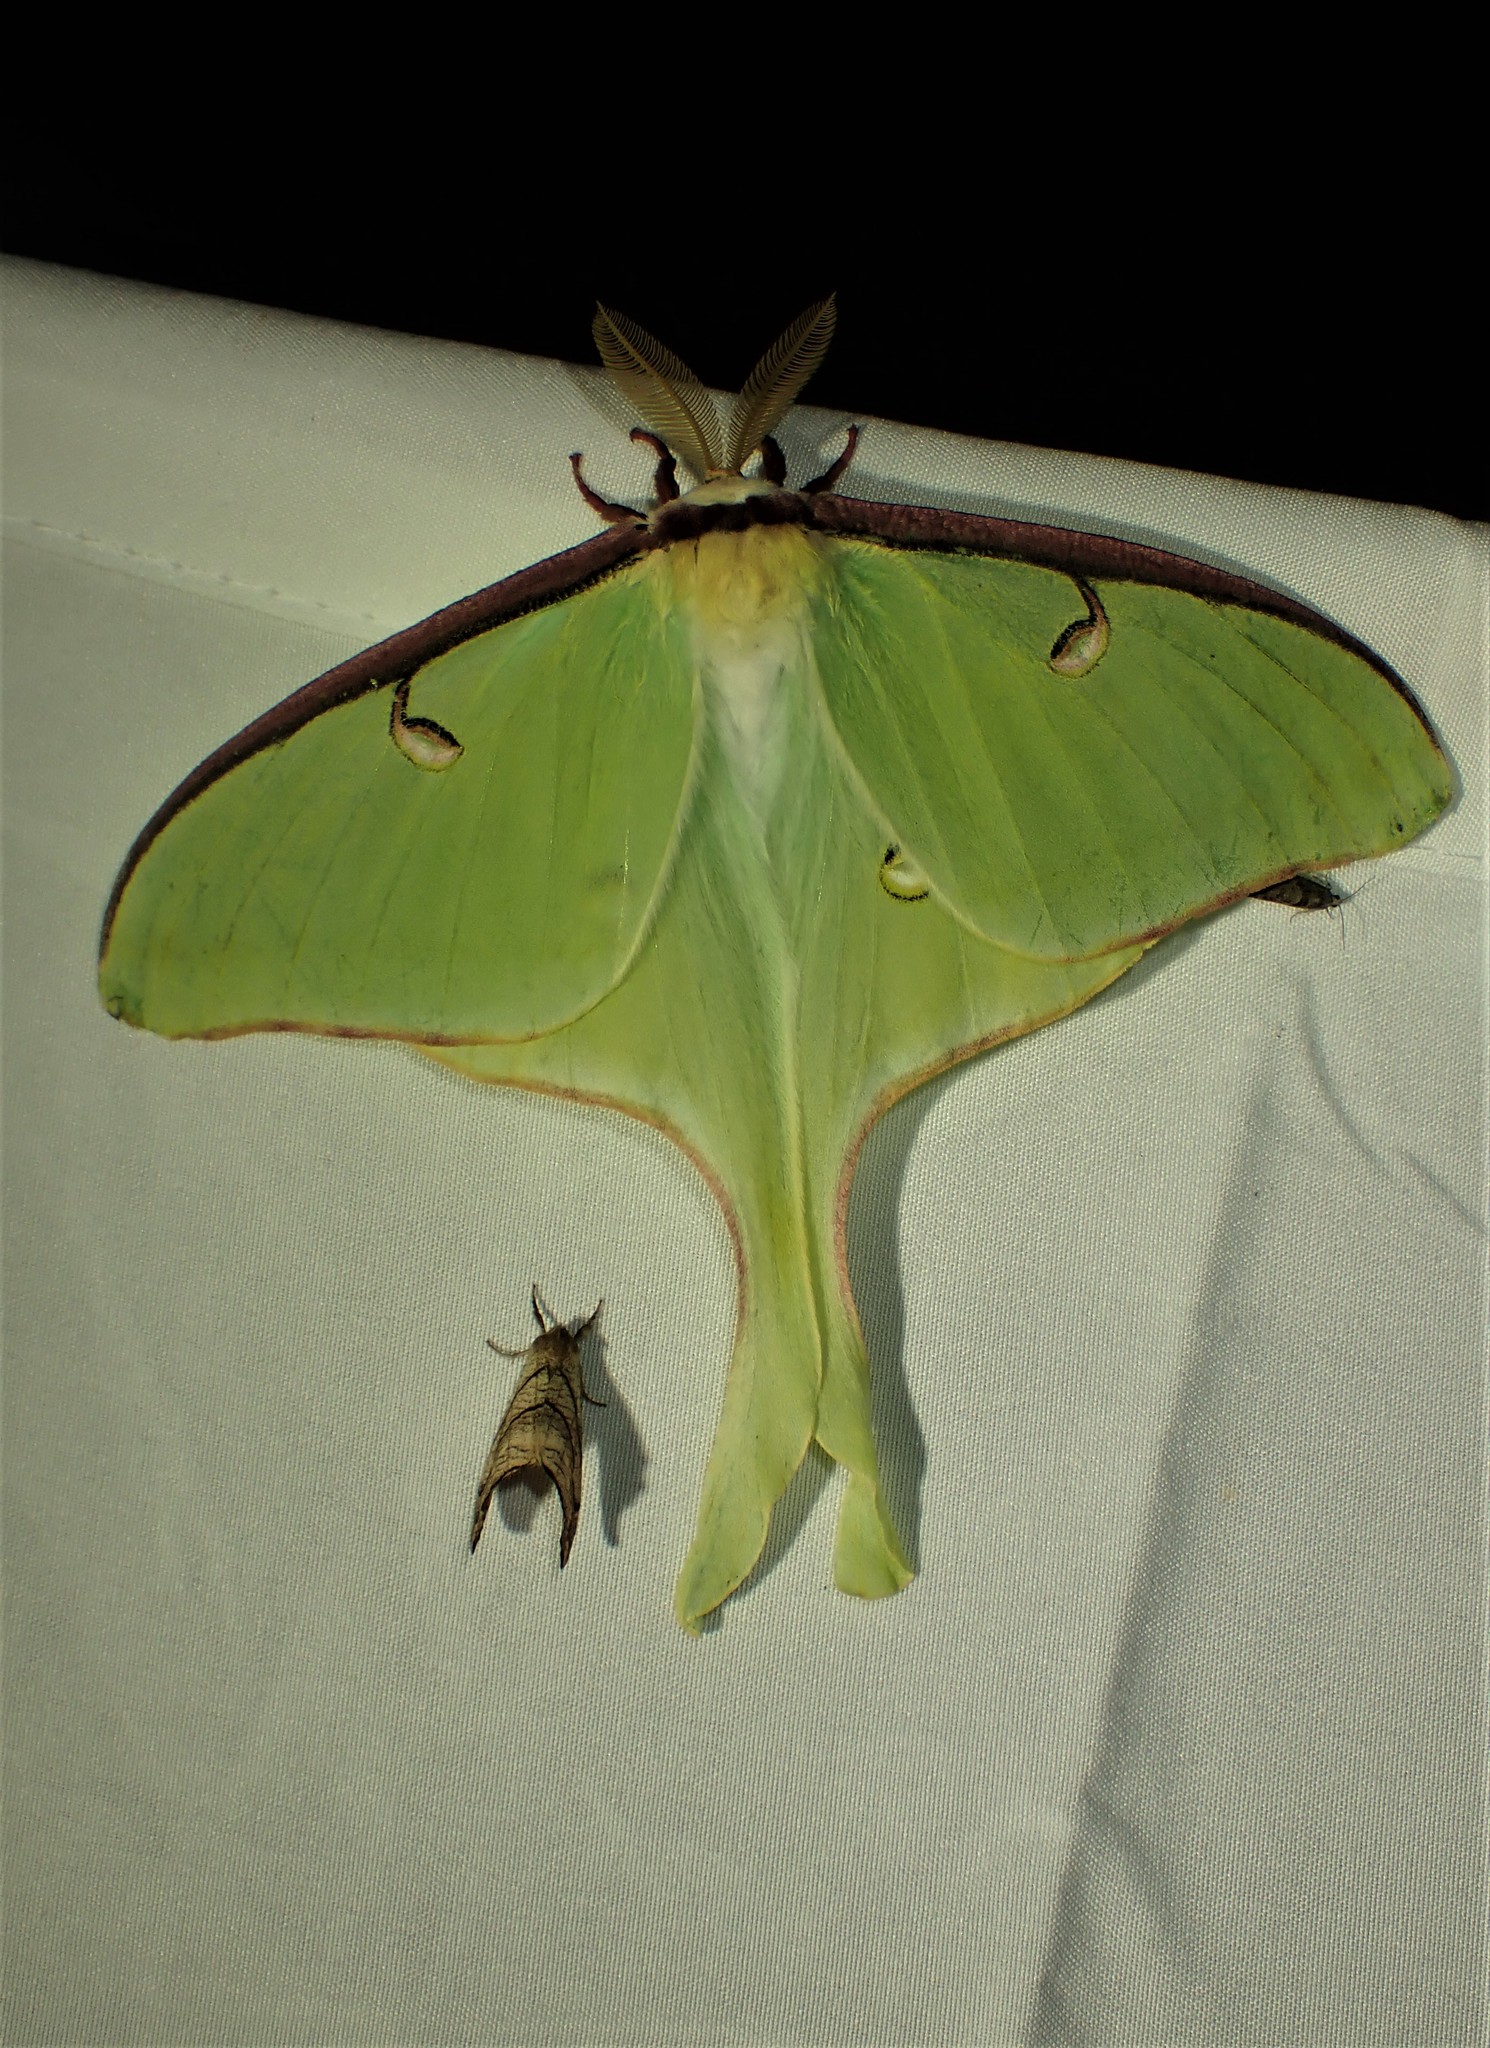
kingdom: Animalia
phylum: Arthropoda
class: Insecta
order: Lepidoptera
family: Saturniidae
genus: Actias
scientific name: Actias luna
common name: Luna moth
